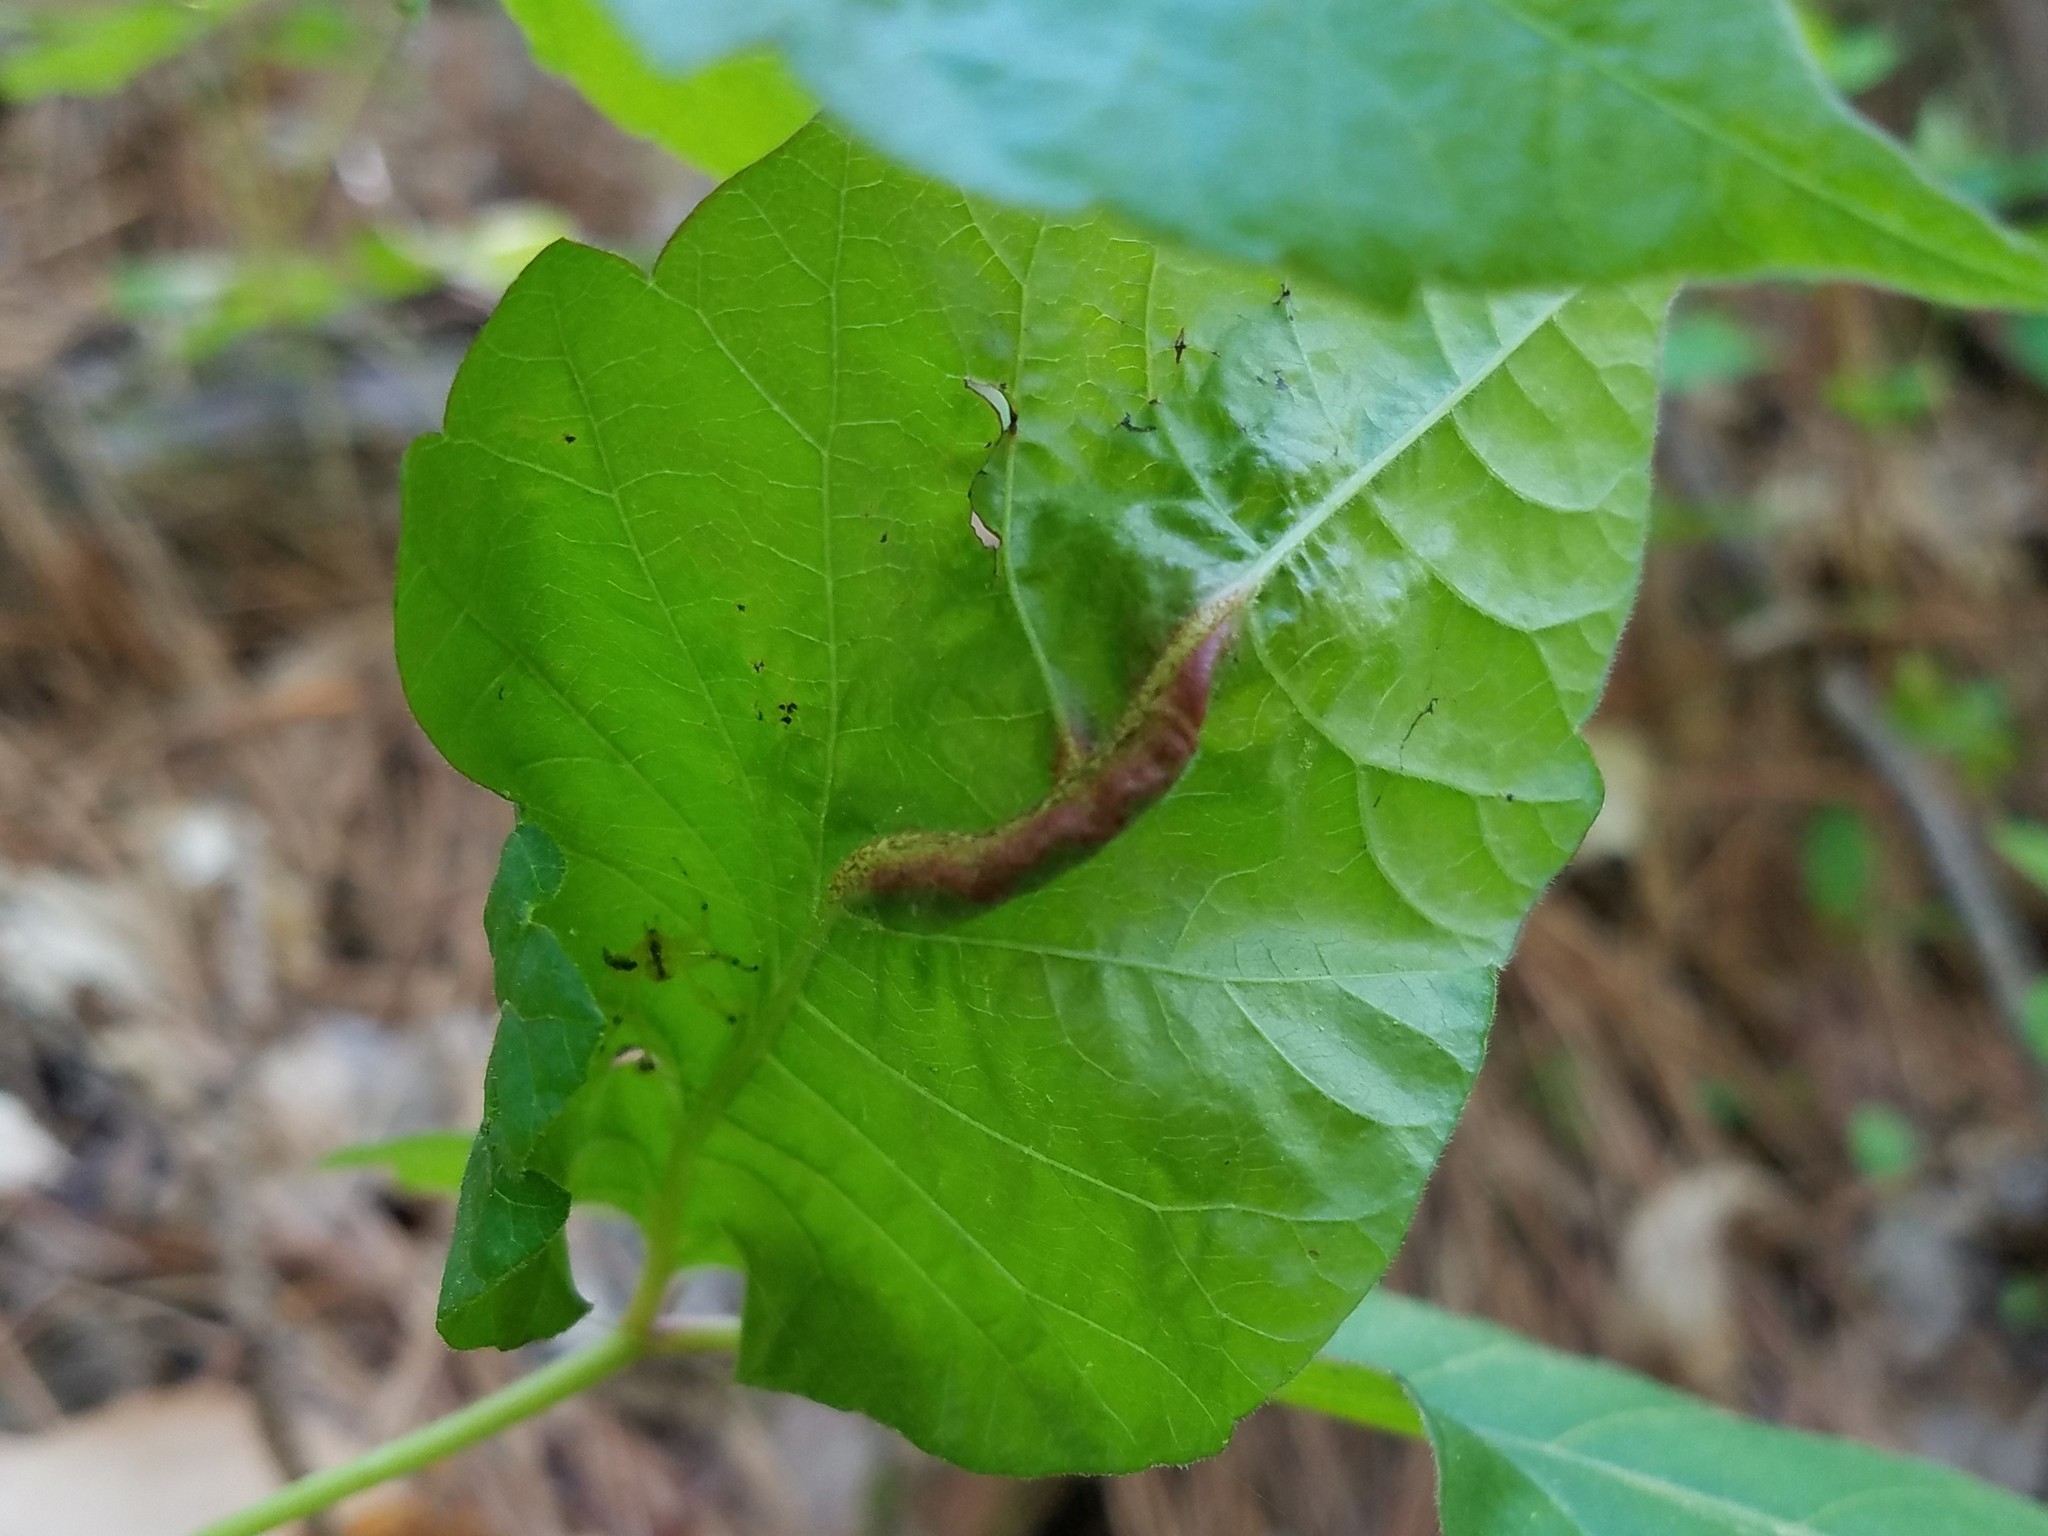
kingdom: Fungi
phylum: Basidiomycota
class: Pucciniomycetes
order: Pucciniales
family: Pileolariaceae
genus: Pileolaria
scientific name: Pileolaria brevipes
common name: Poison ivy rust
